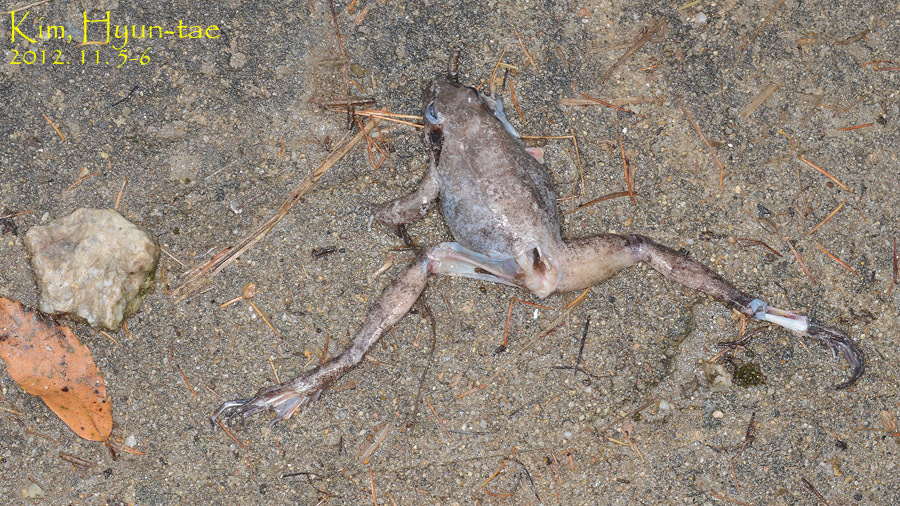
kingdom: Animalia
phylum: Chordata
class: Amphibia
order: Anura
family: Ranidae
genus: Rana
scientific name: Rana uenoi
